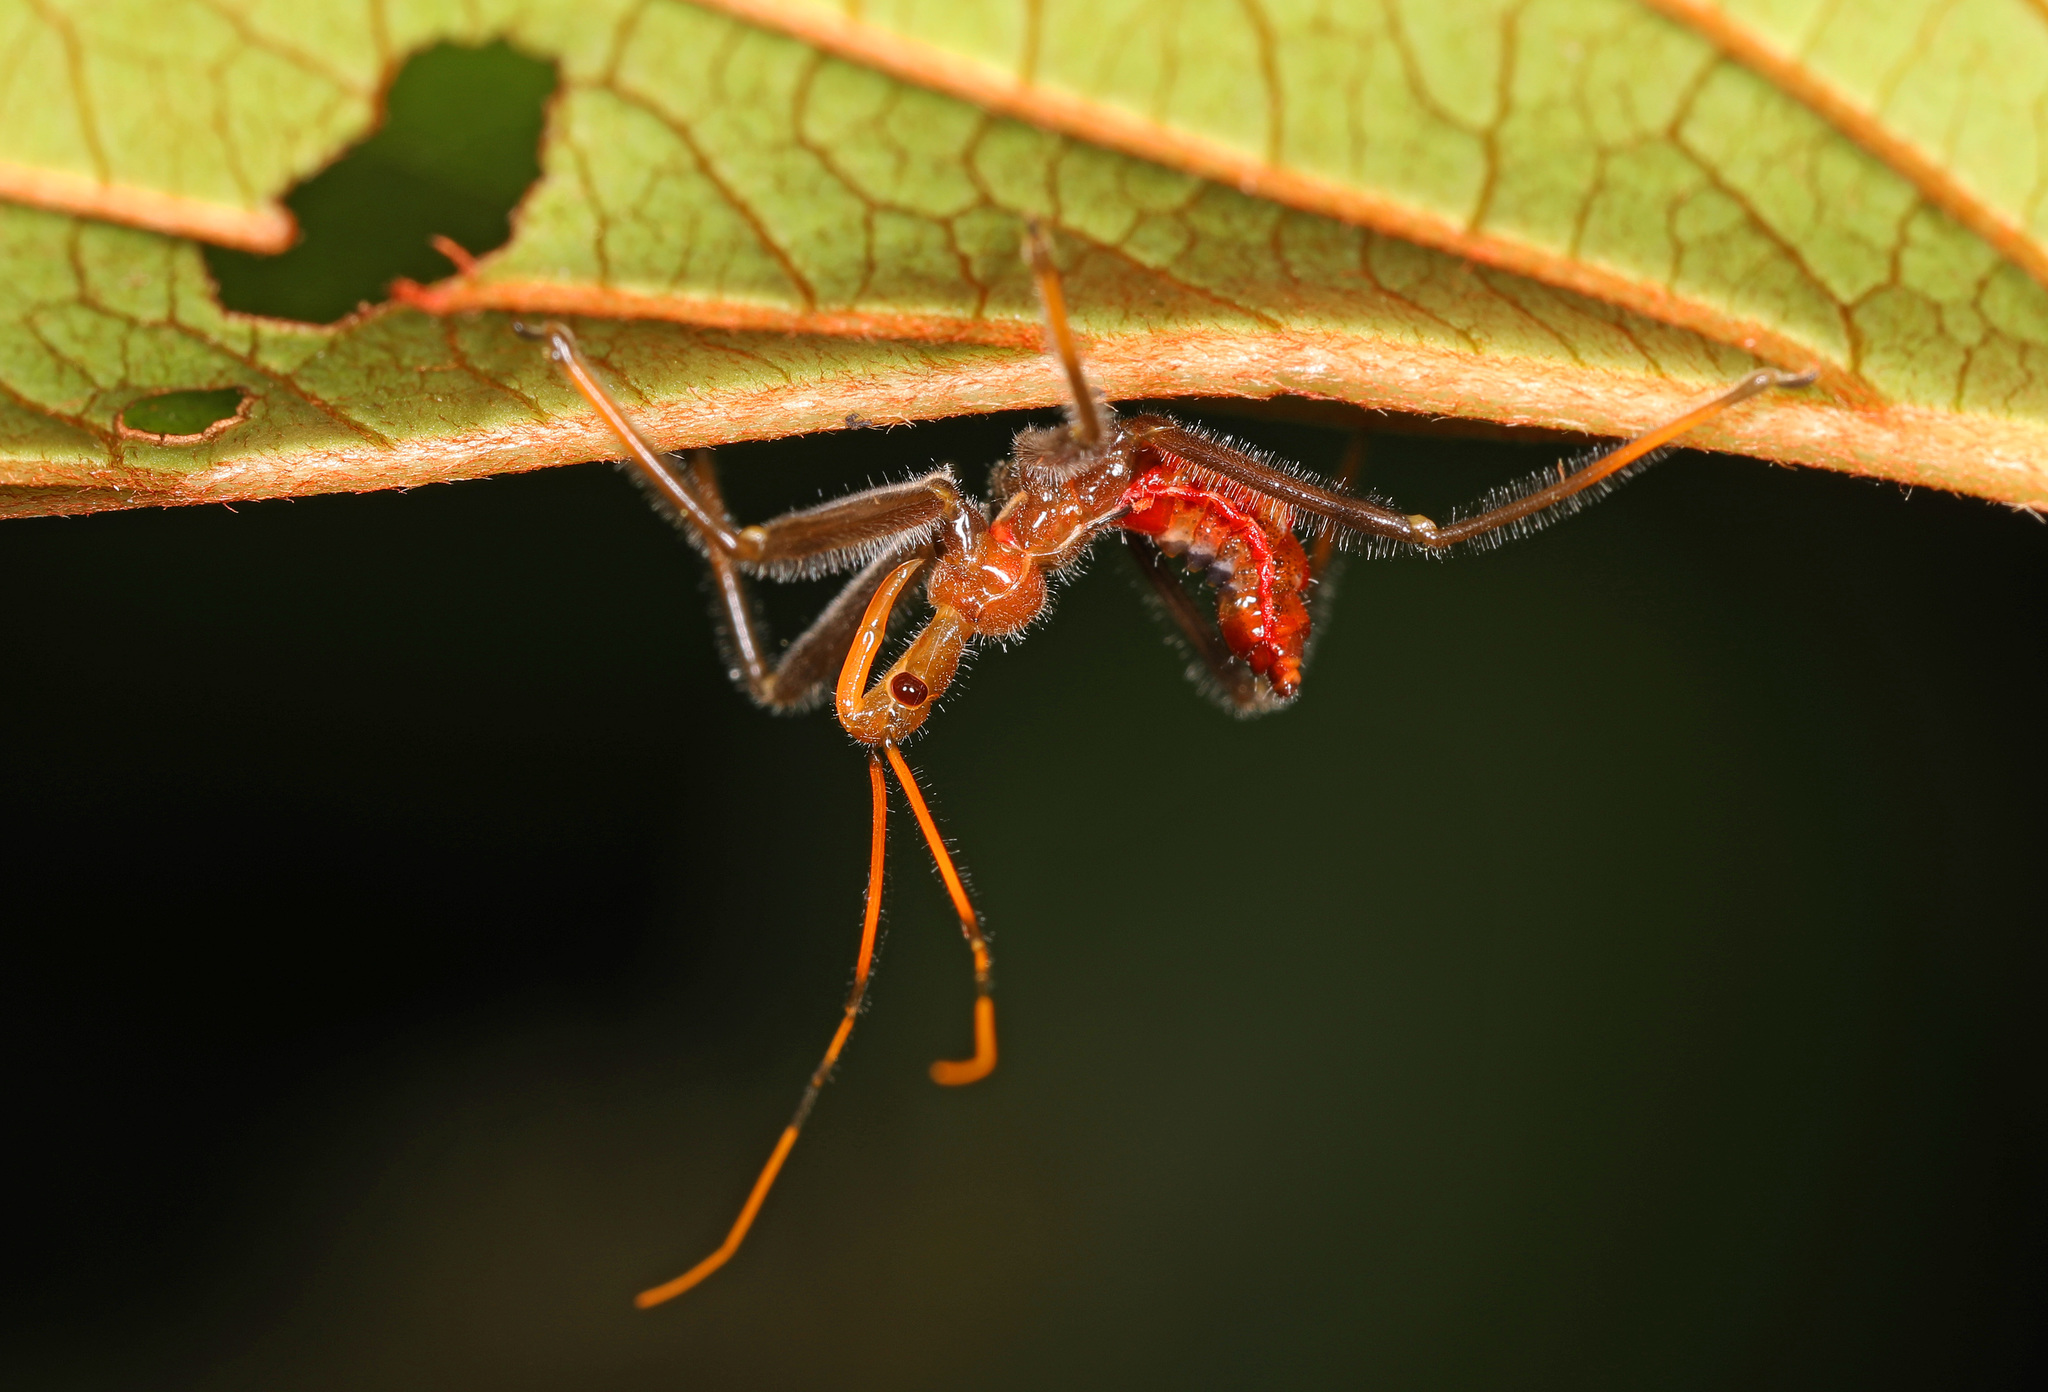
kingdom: Animalia
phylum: Arthropoda
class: Insecta
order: Hemiptera
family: Reduviidae
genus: Arilus
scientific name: Arilus cristatus
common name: North american wheel bug
